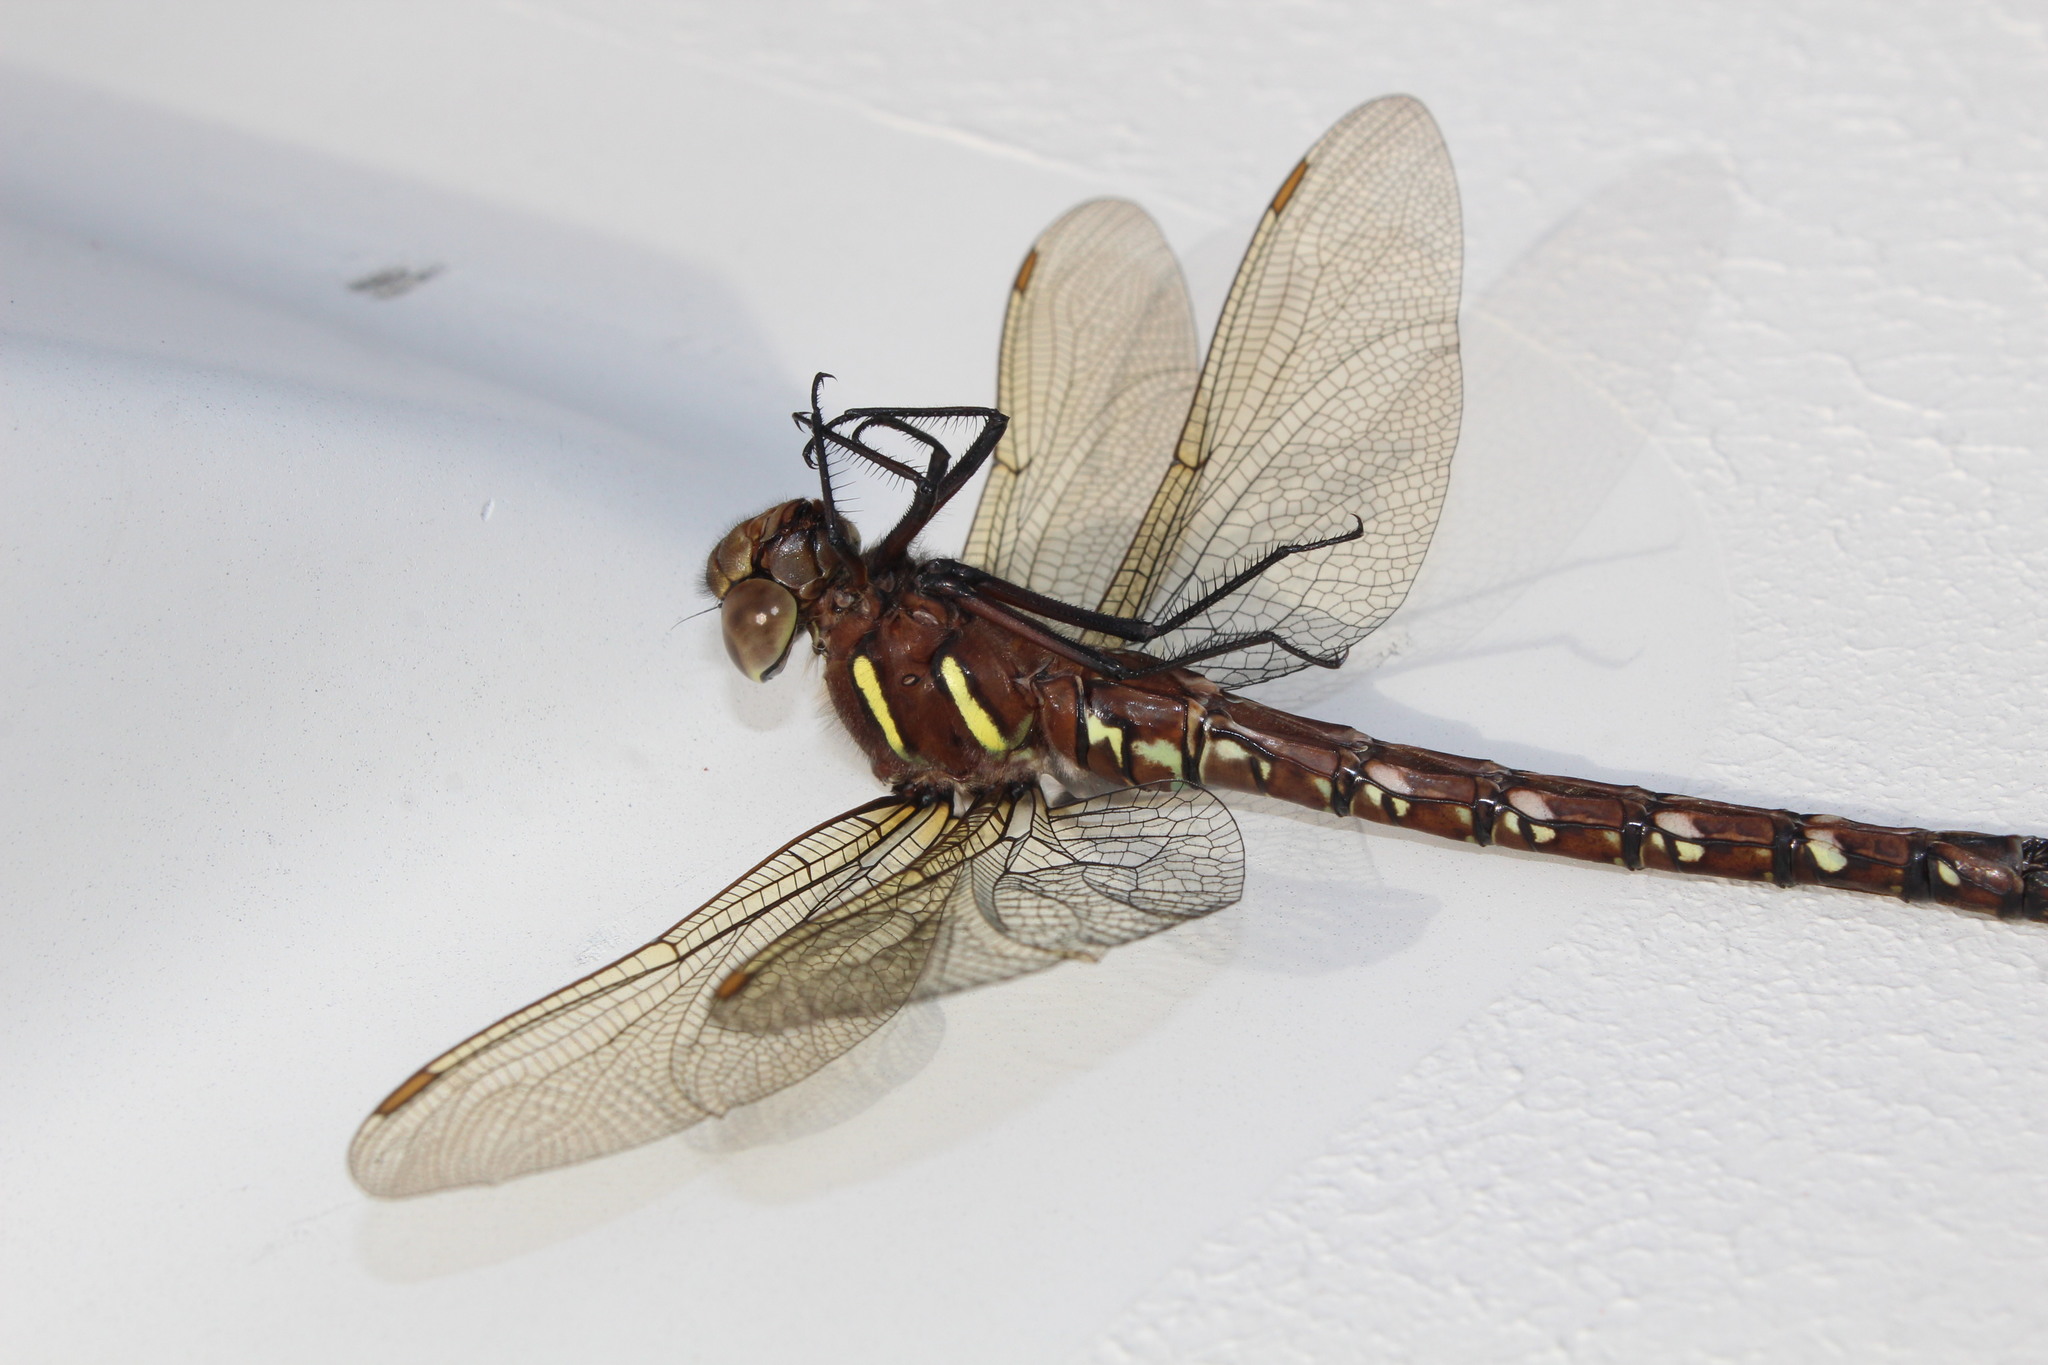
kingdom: Animalia
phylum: Arthropoda
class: Insecta
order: Odonata
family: Aeshnidae
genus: Aeshna
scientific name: Aeshna umbrosa
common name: Shadow darner
